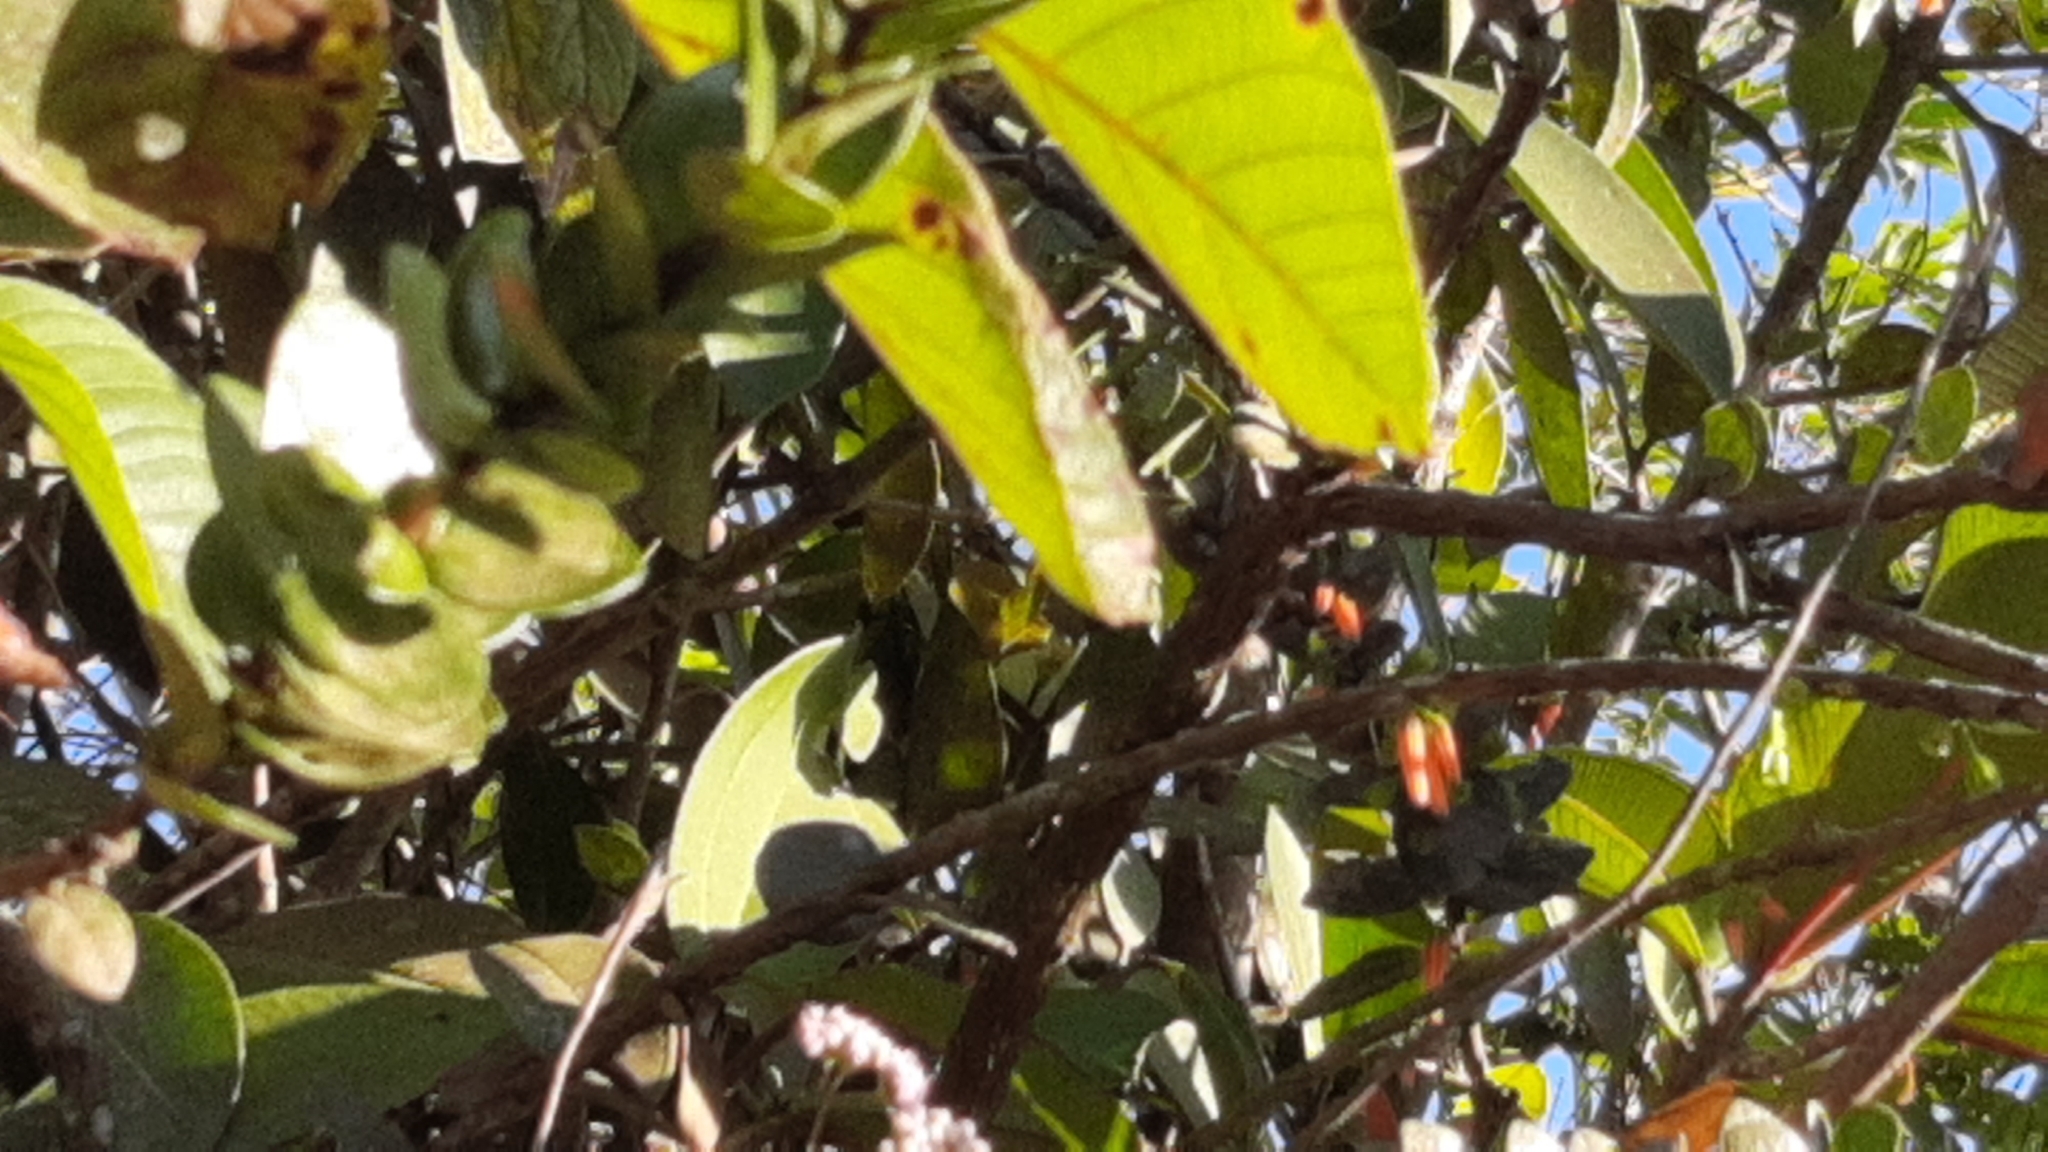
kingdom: Plantae
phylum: Tracheophyta
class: Magnoliopsida
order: Ericales
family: Ericaceae
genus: Macleania
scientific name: Macleania insignis
